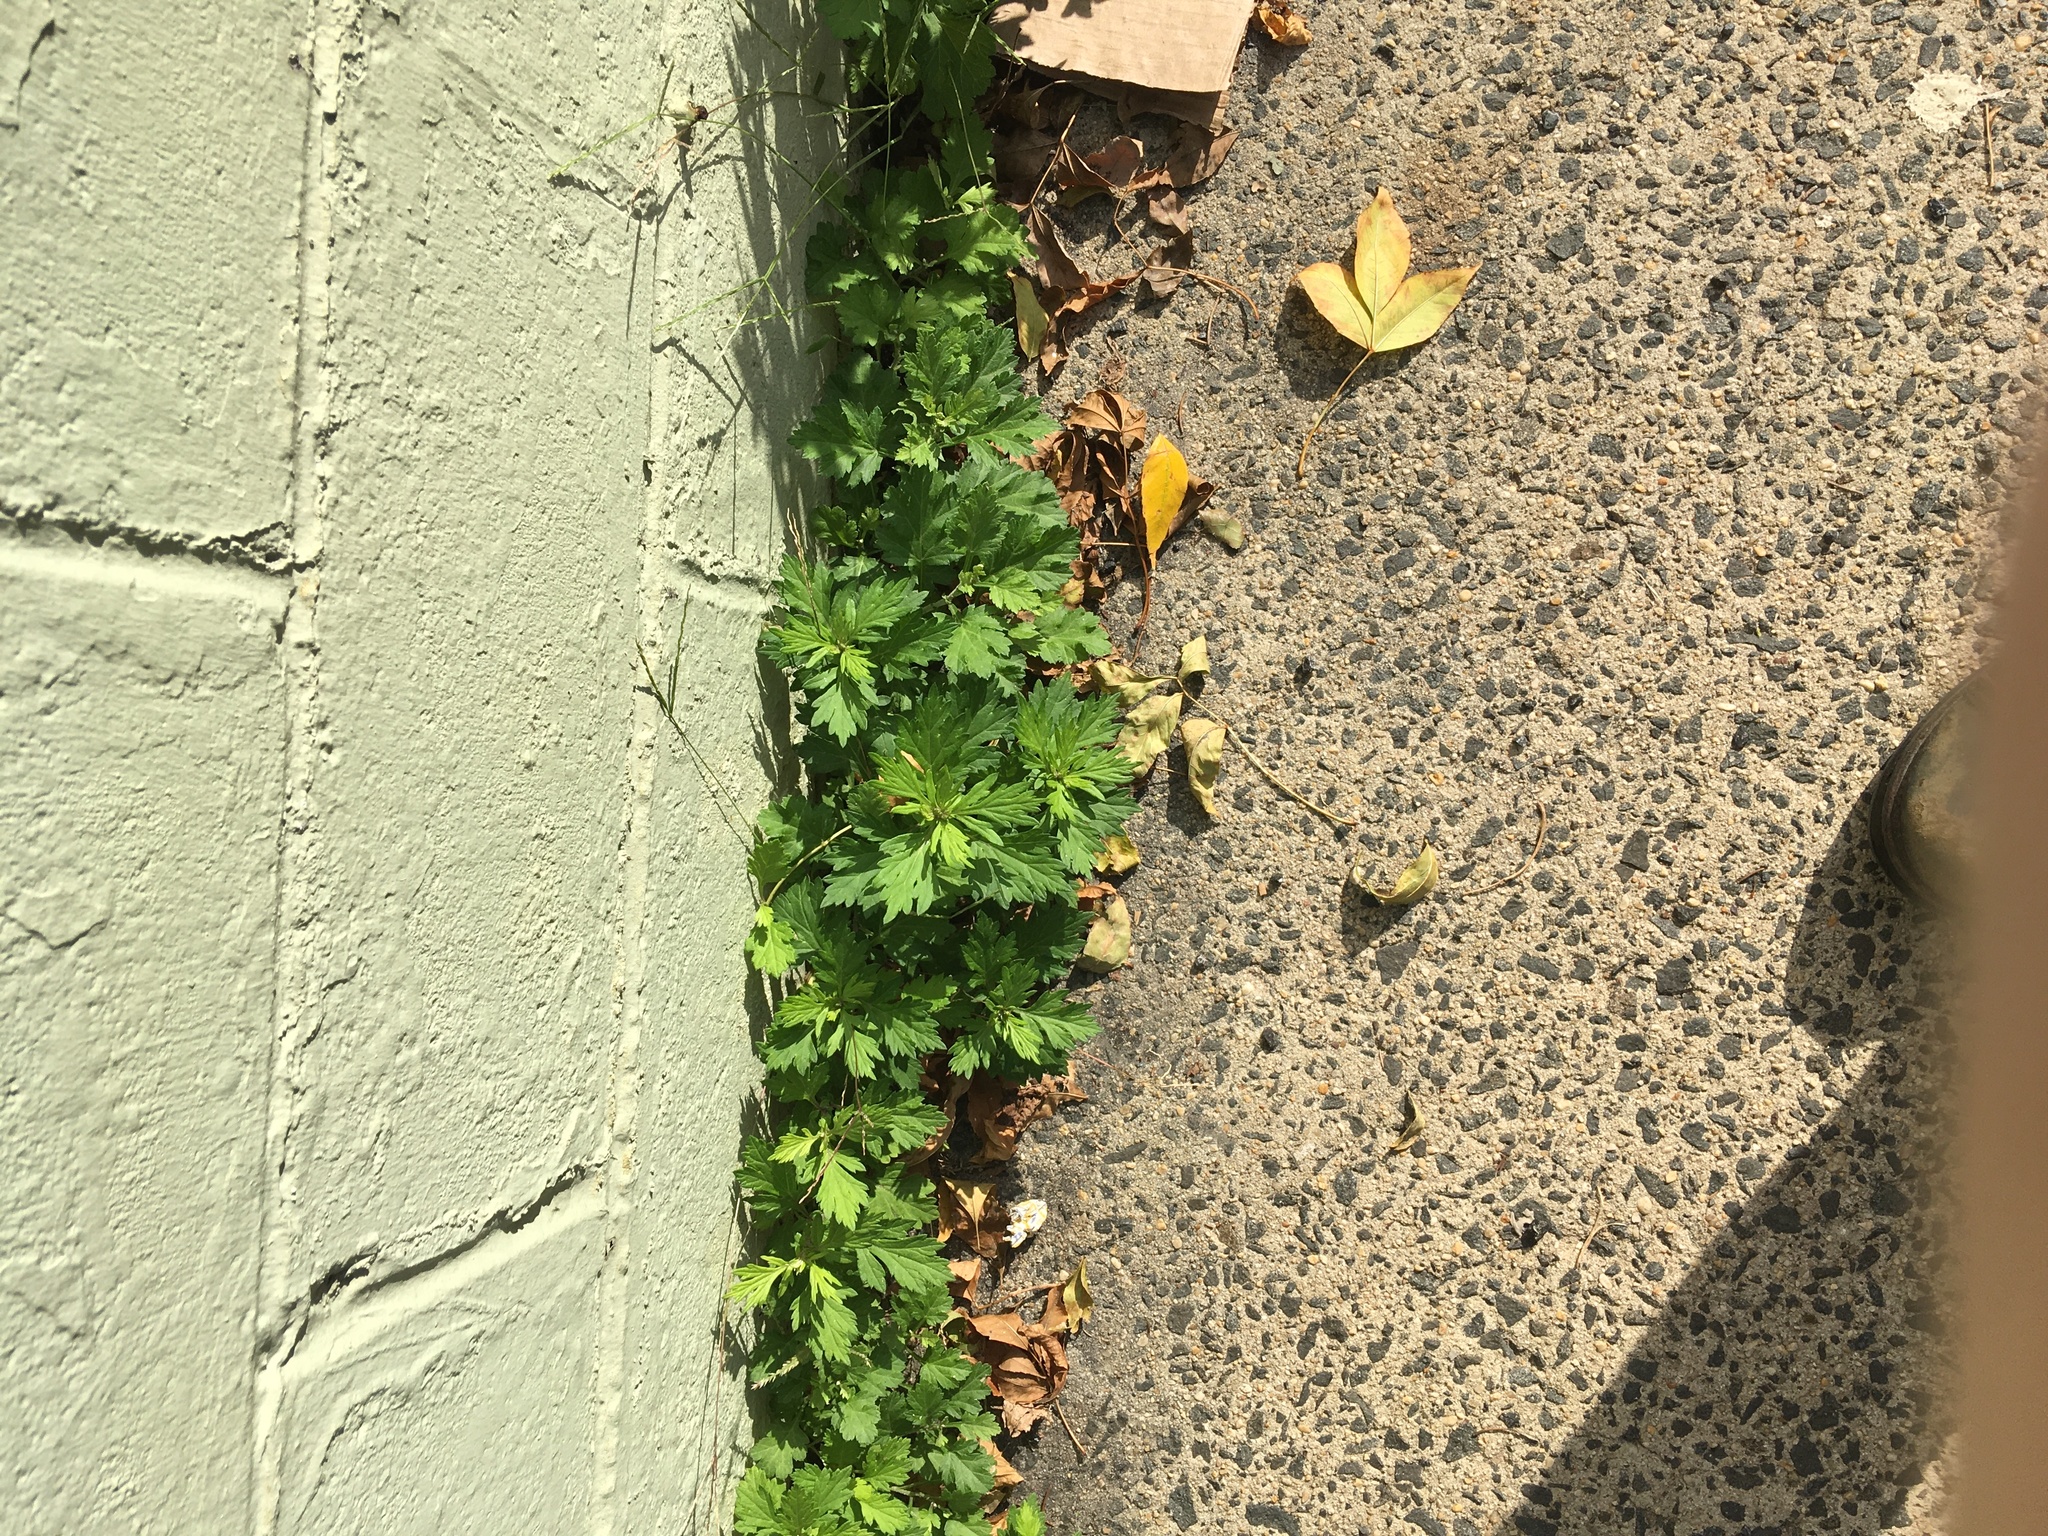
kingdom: Plantae
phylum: Tracheophyta
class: Magnoliopsida
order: Asterales
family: Asteraceae
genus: Artemisia
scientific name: Artemisia vulgaris
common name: Mugwort
